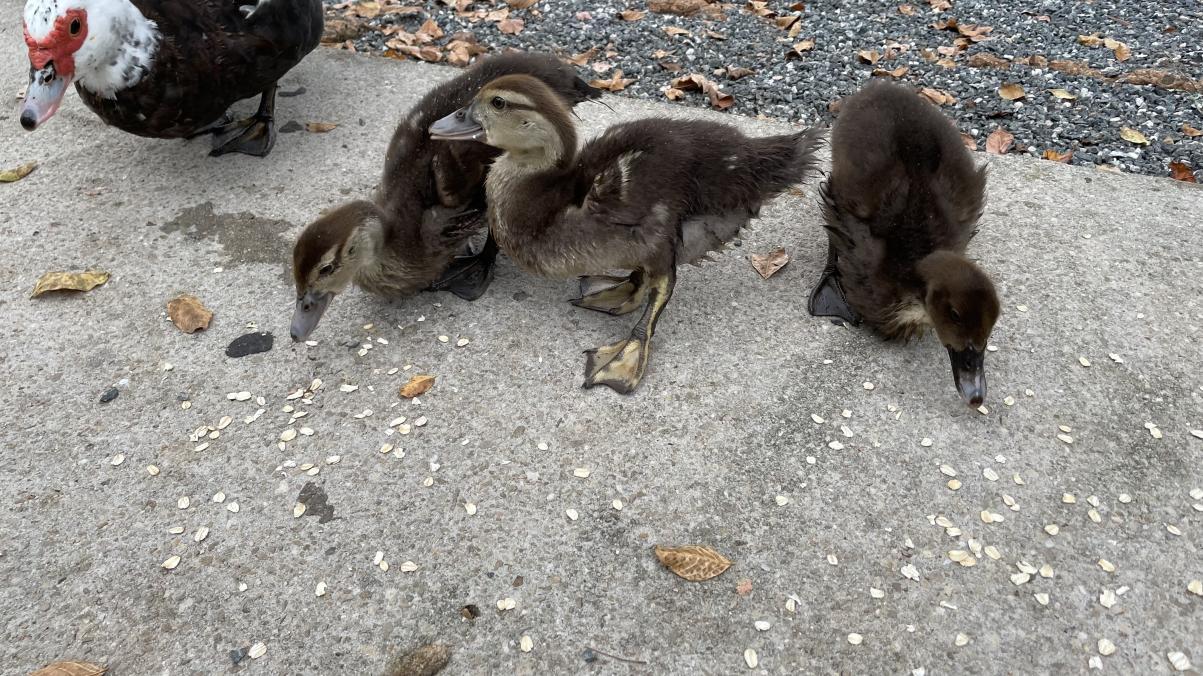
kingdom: Animalia
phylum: Chordata
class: Aves
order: Anseriformes
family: Anatidae
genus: Cairina
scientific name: Cairina moschata
